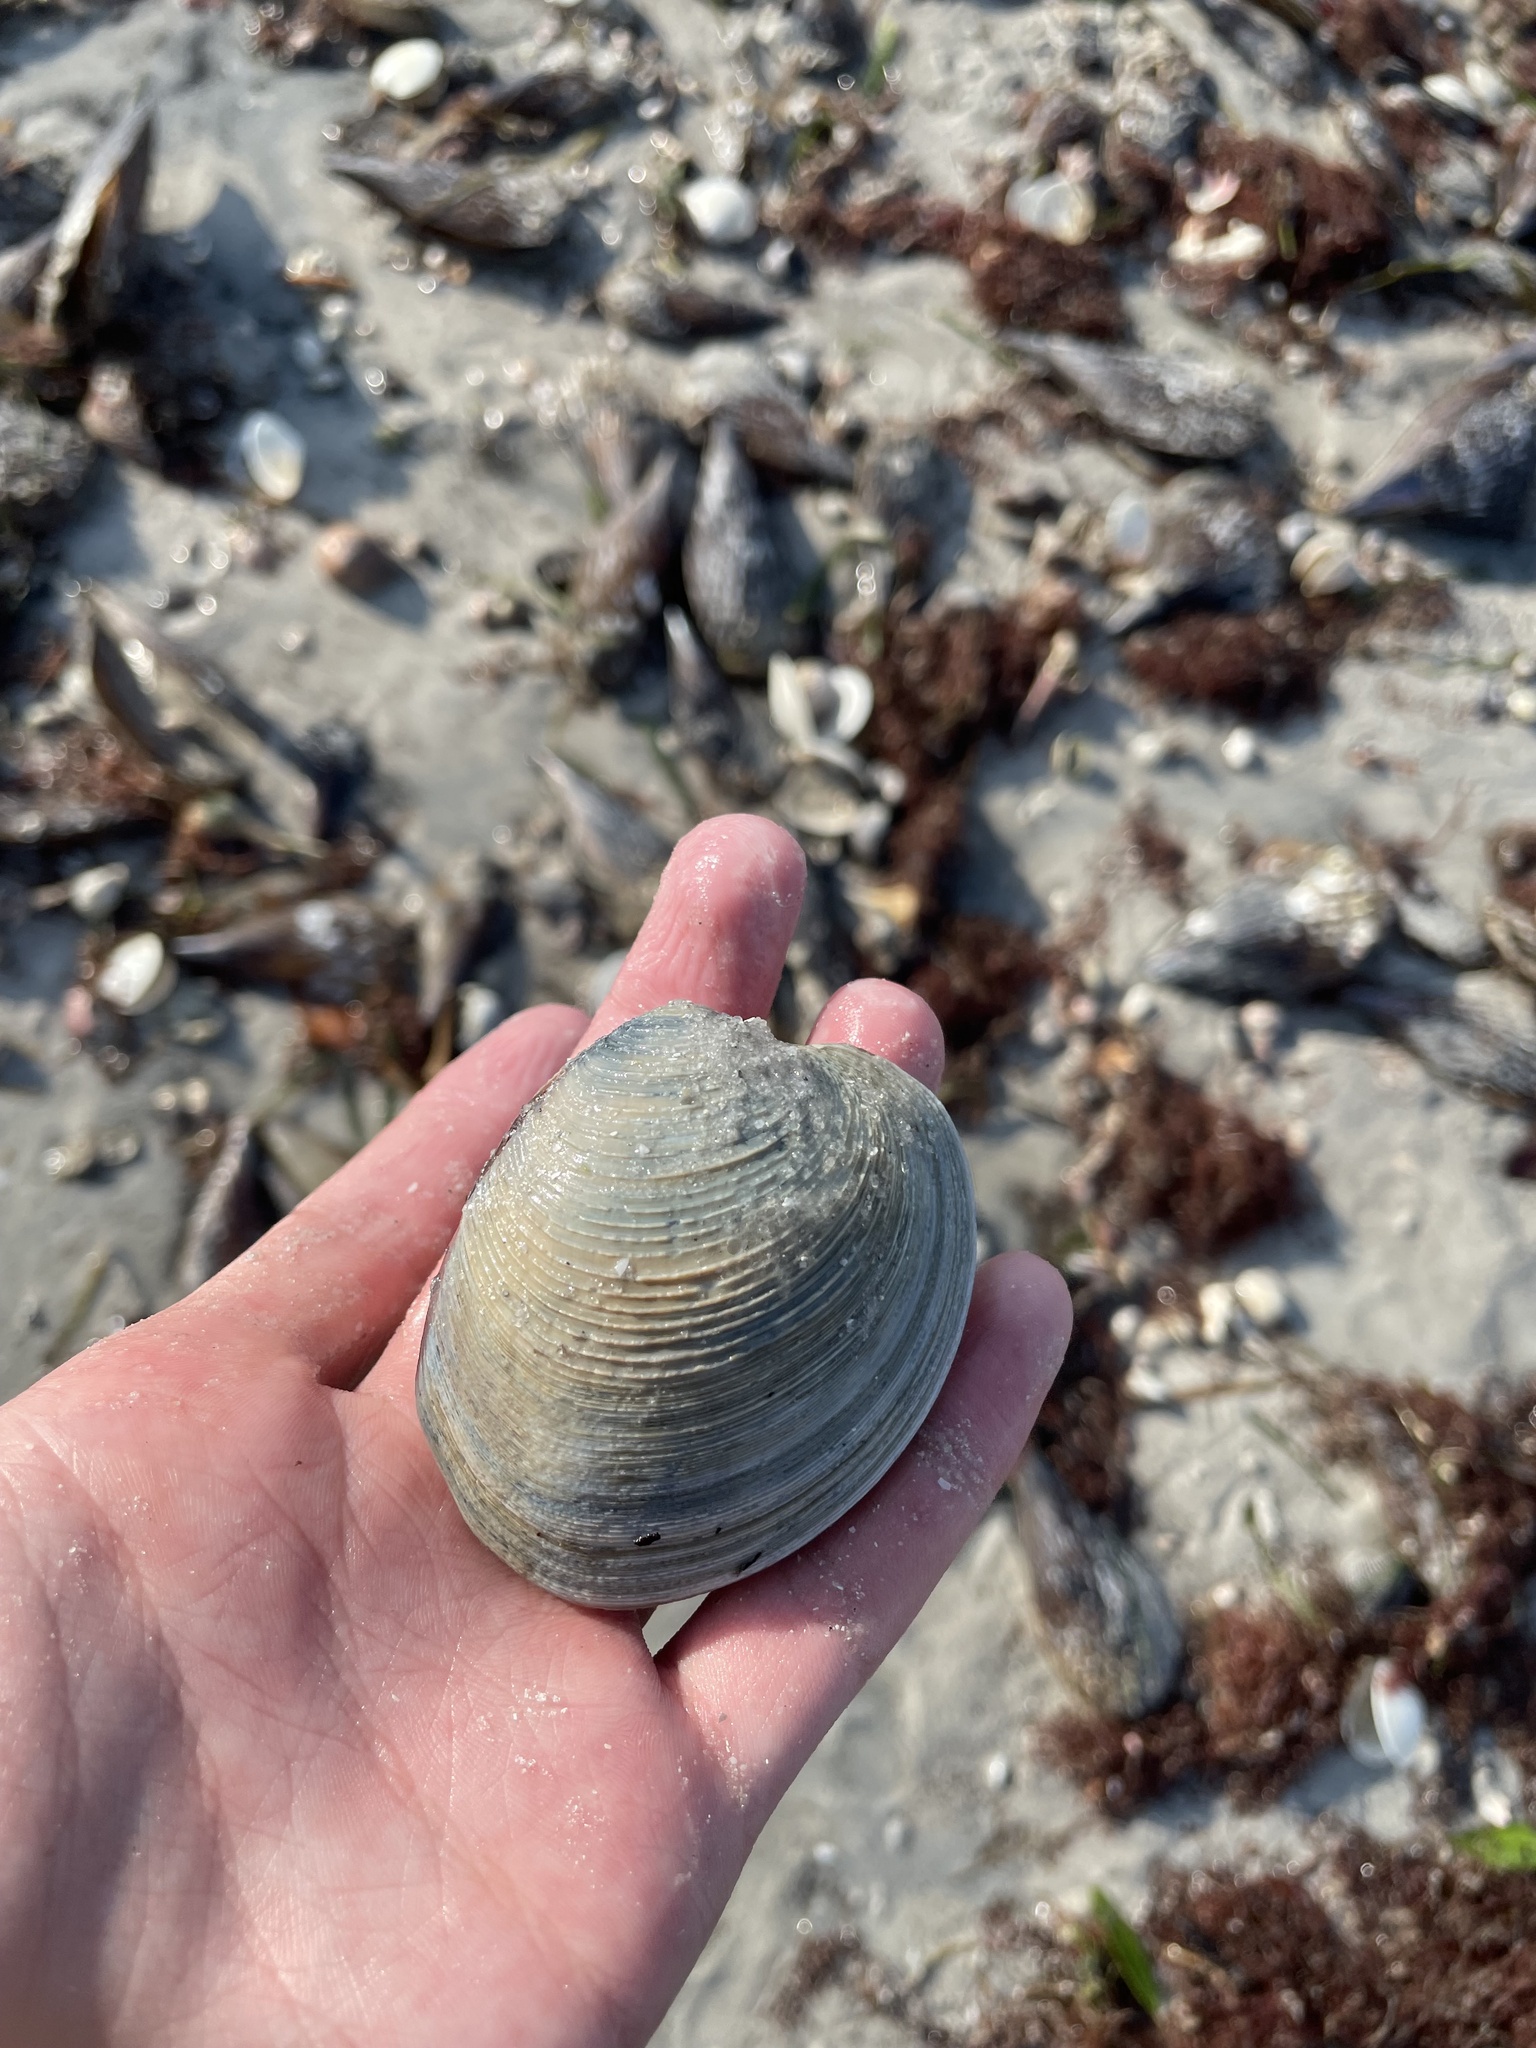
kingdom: Animalia
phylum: Mollusca
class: Bivalvia
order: Venerida
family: Veneridae
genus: Mercenaria
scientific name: Mercenaria campechiensis
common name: Südliche quahog-muschel
